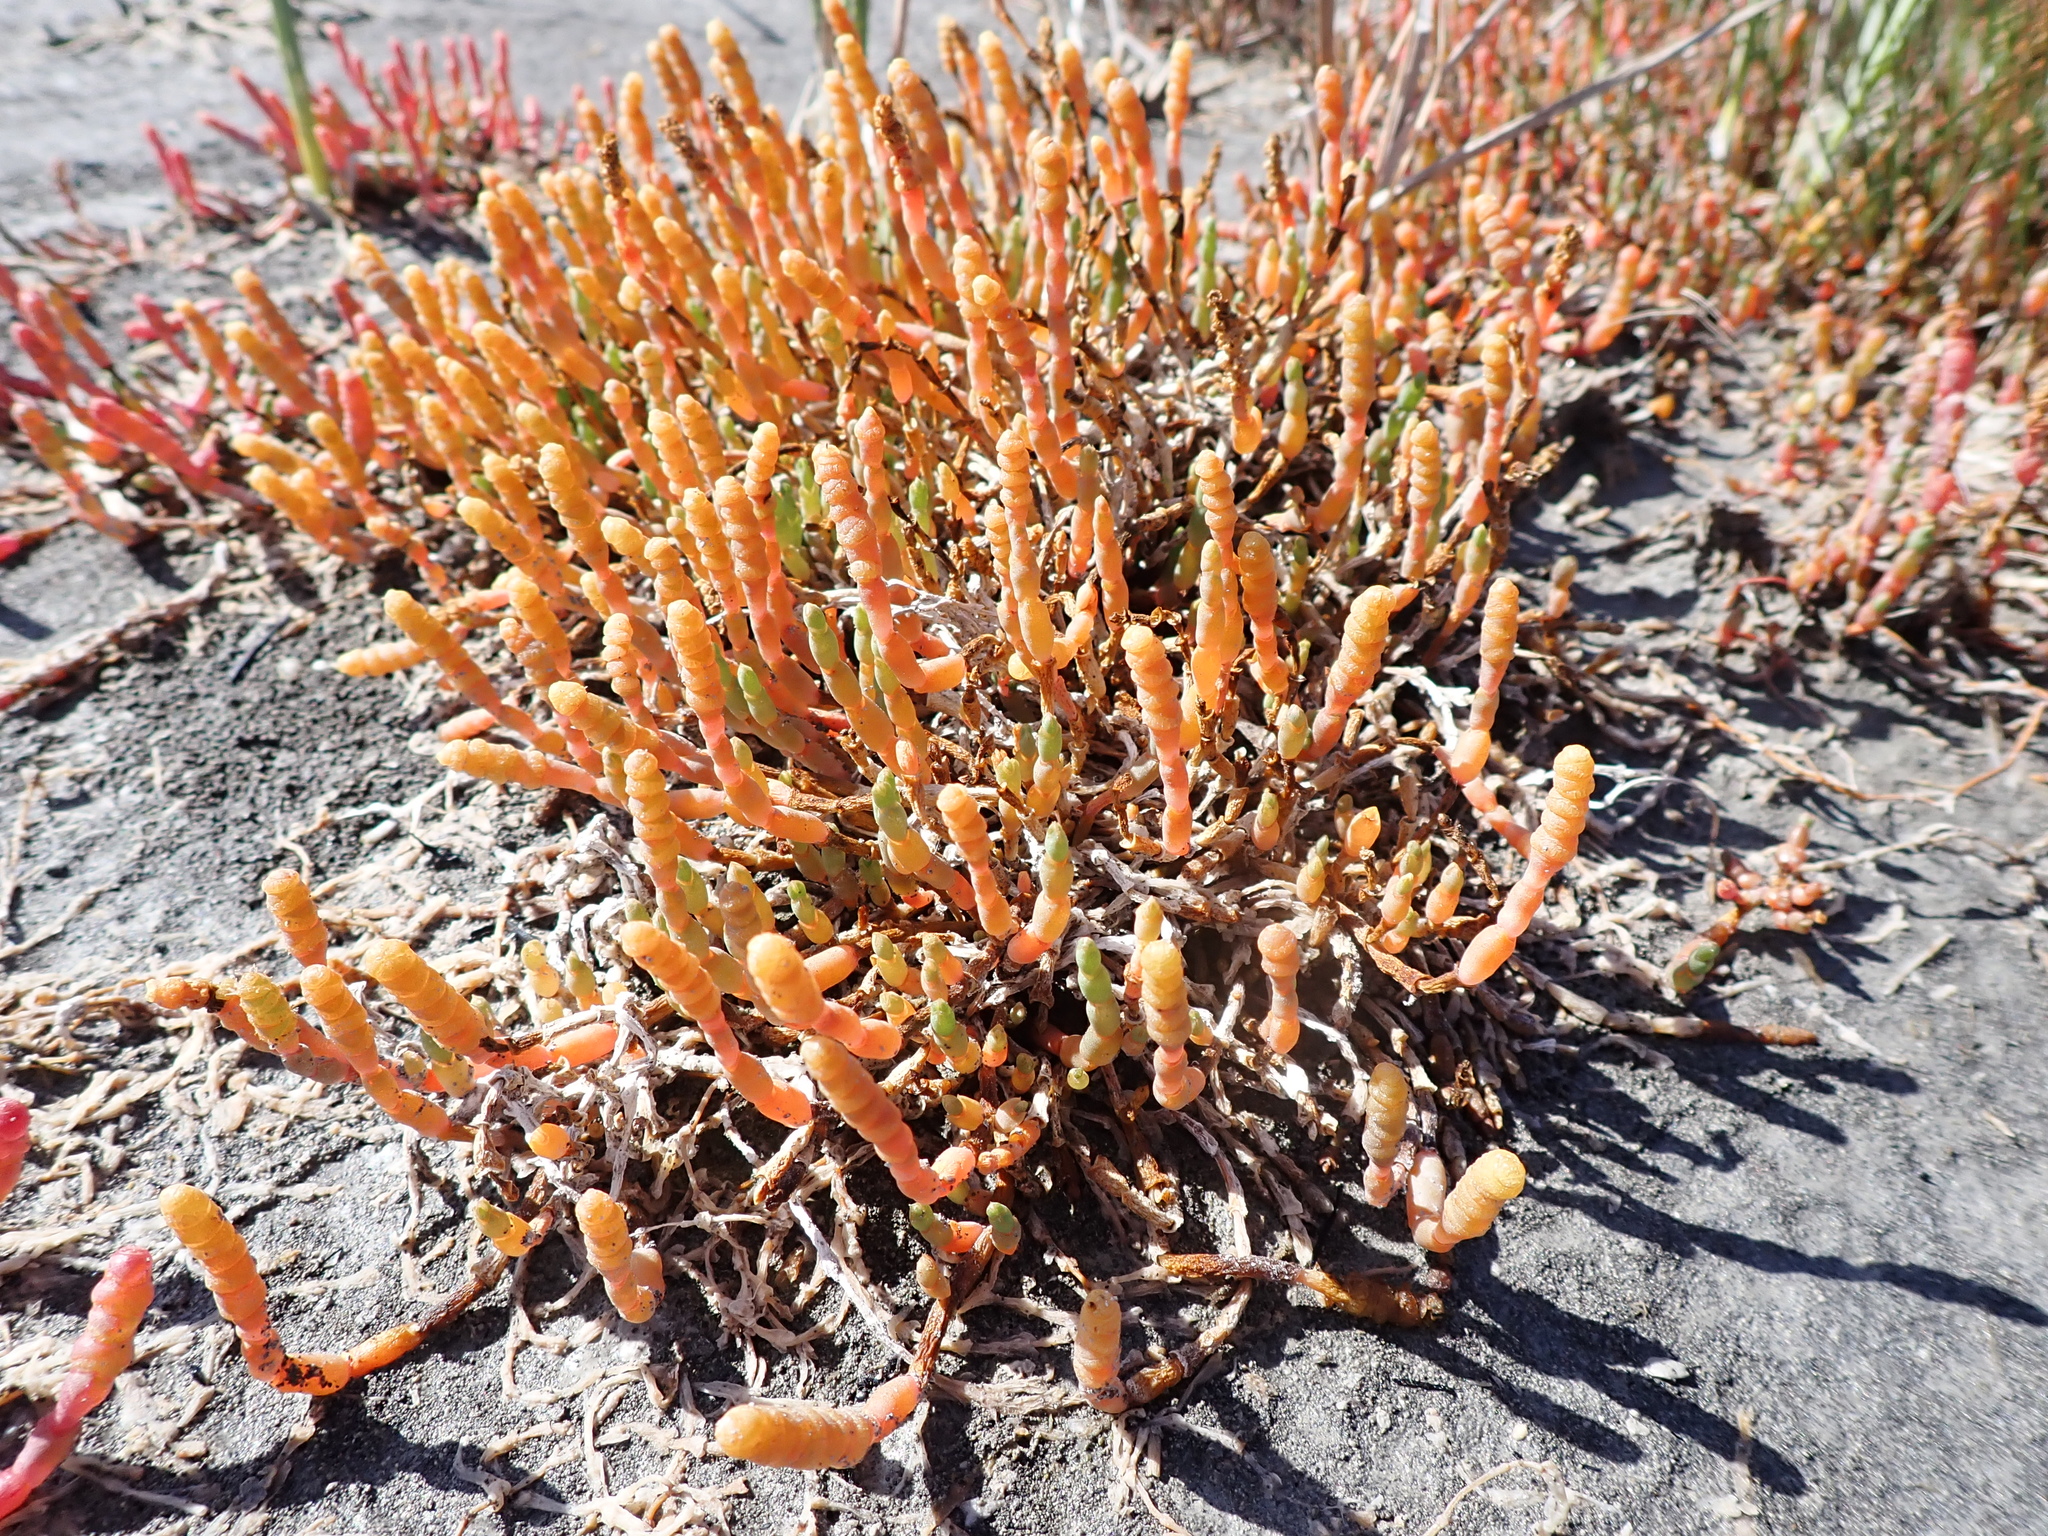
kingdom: Plantae
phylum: Tracheophyta
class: Magnoliopsida
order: Caryophyllales
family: Amaranthaceae
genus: Salicornia
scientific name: Salicornia quinqueflora
